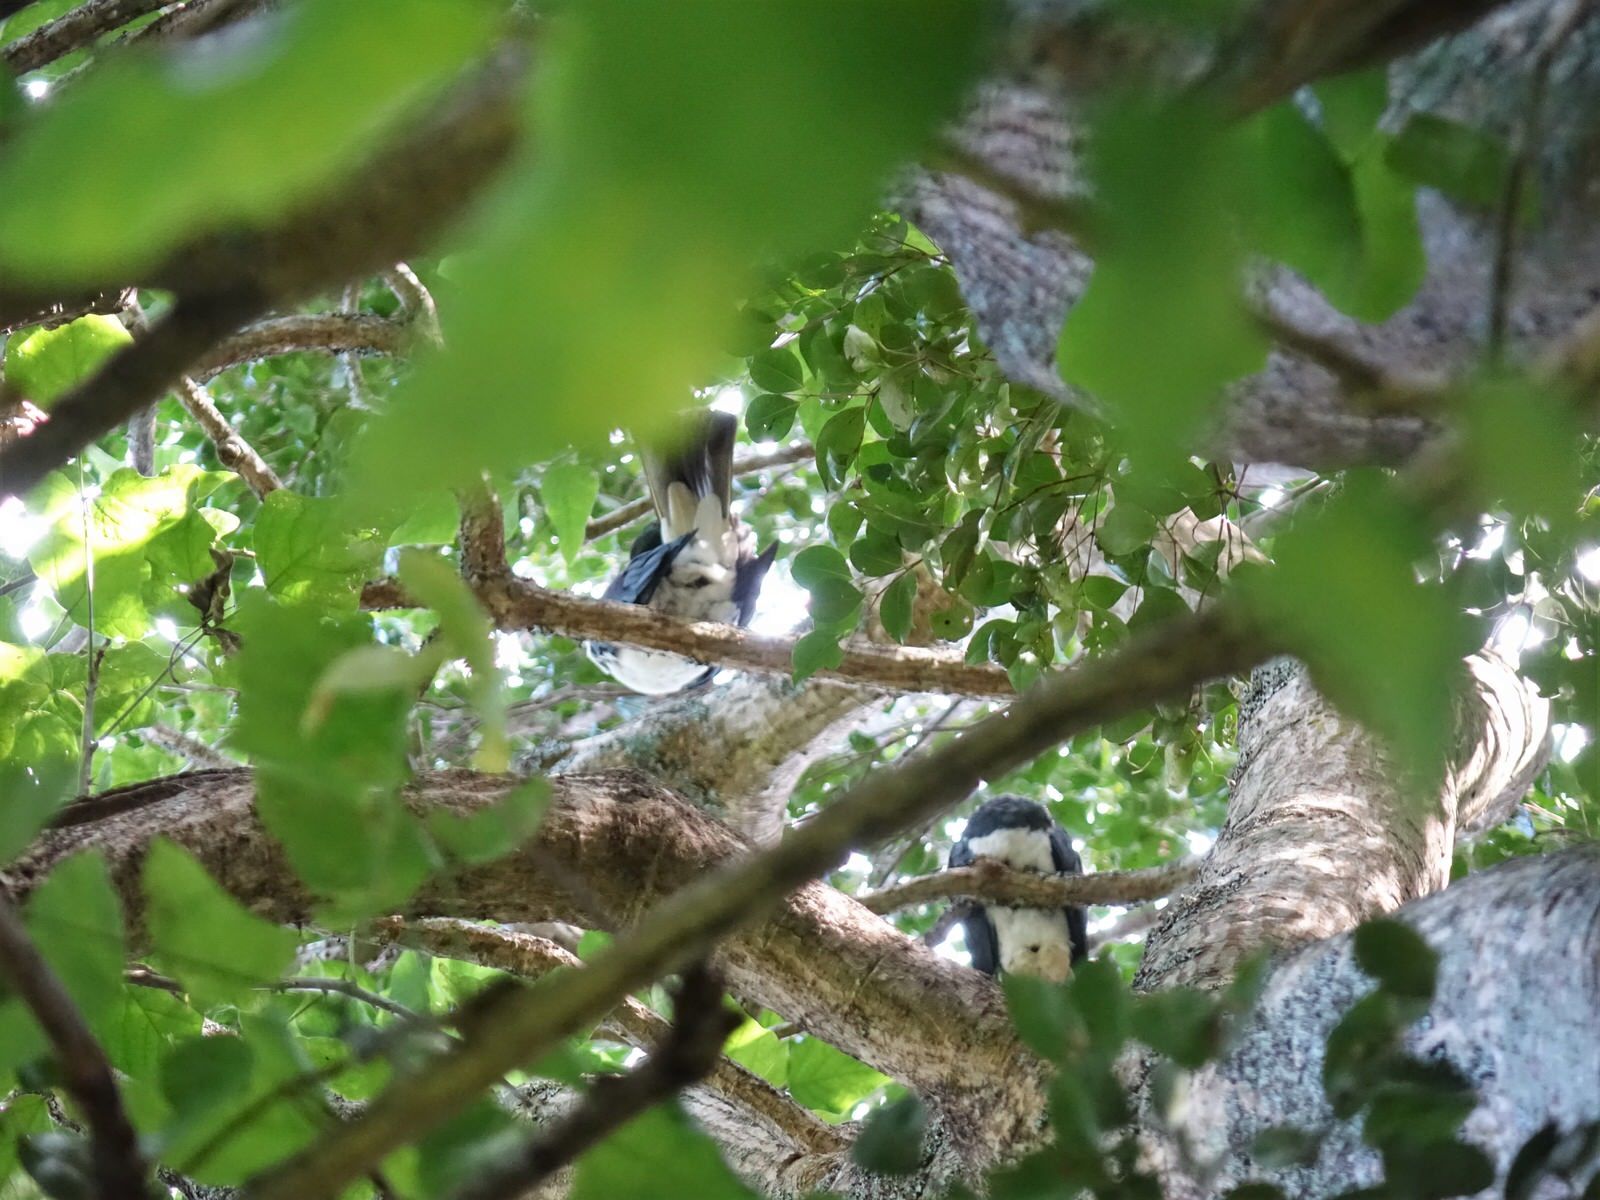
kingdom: Animalia
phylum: Chordata
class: Aves
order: Columbiformes
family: Columbidae
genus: Hemiphaga
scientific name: Hemiphaga novaeseelandiae
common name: New zealand pigeon
